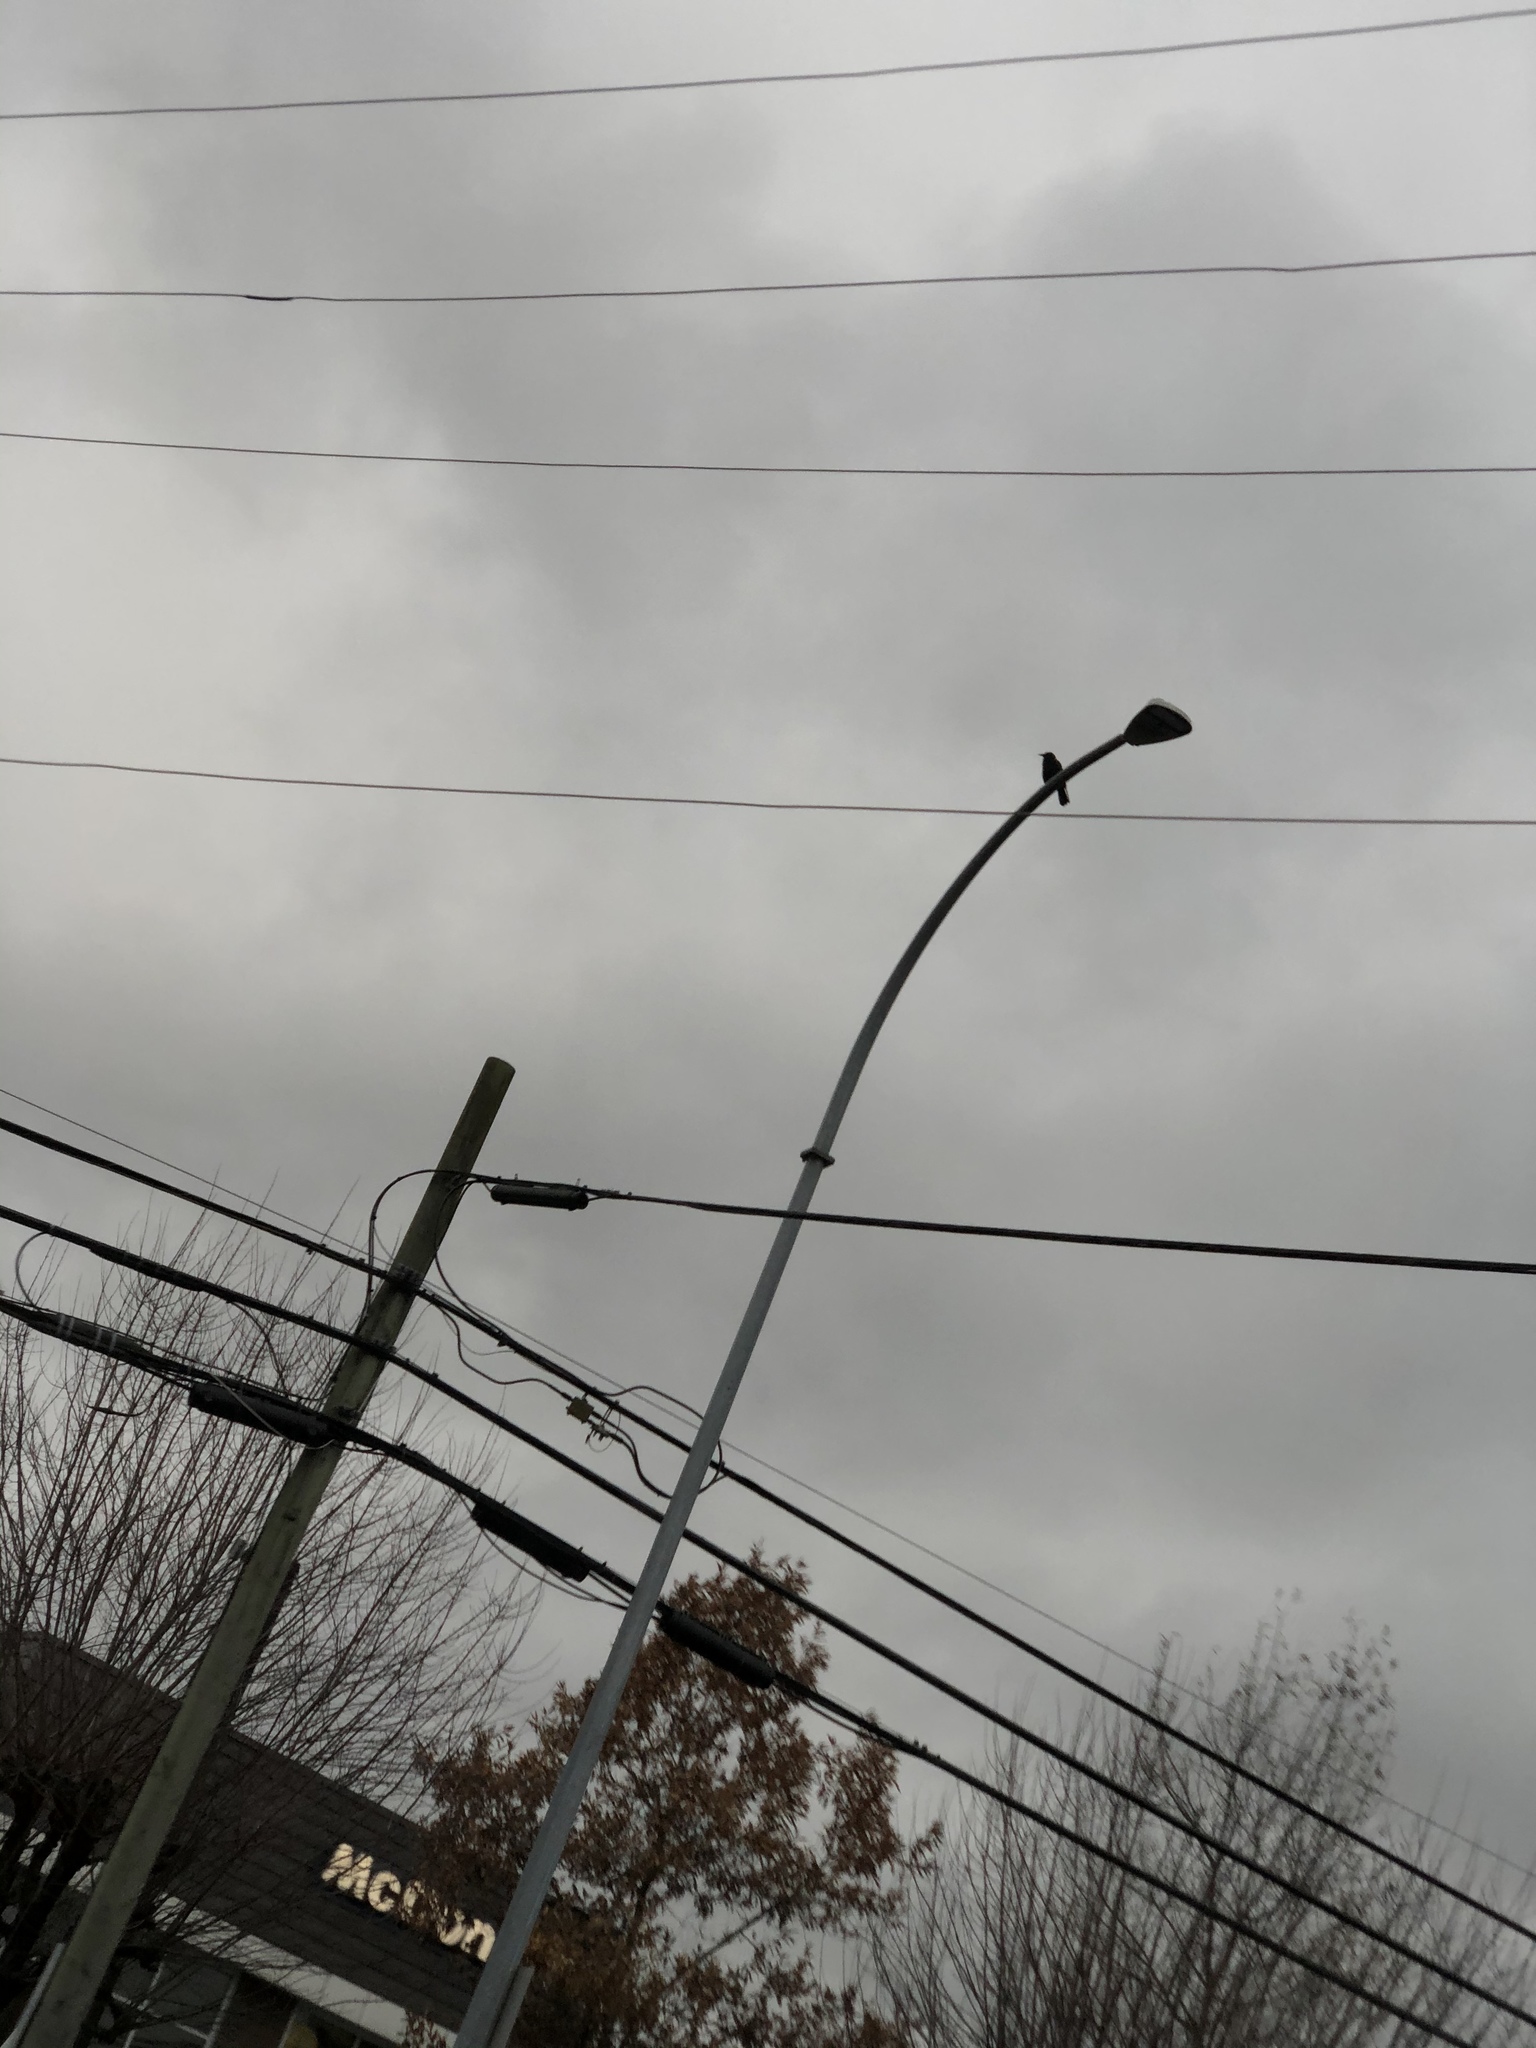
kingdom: Animalia
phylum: Chordata
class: Aves
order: Passeriformes
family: Corvidae
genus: Corvus
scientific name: Corvus brachyrhynchos
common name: American crow
